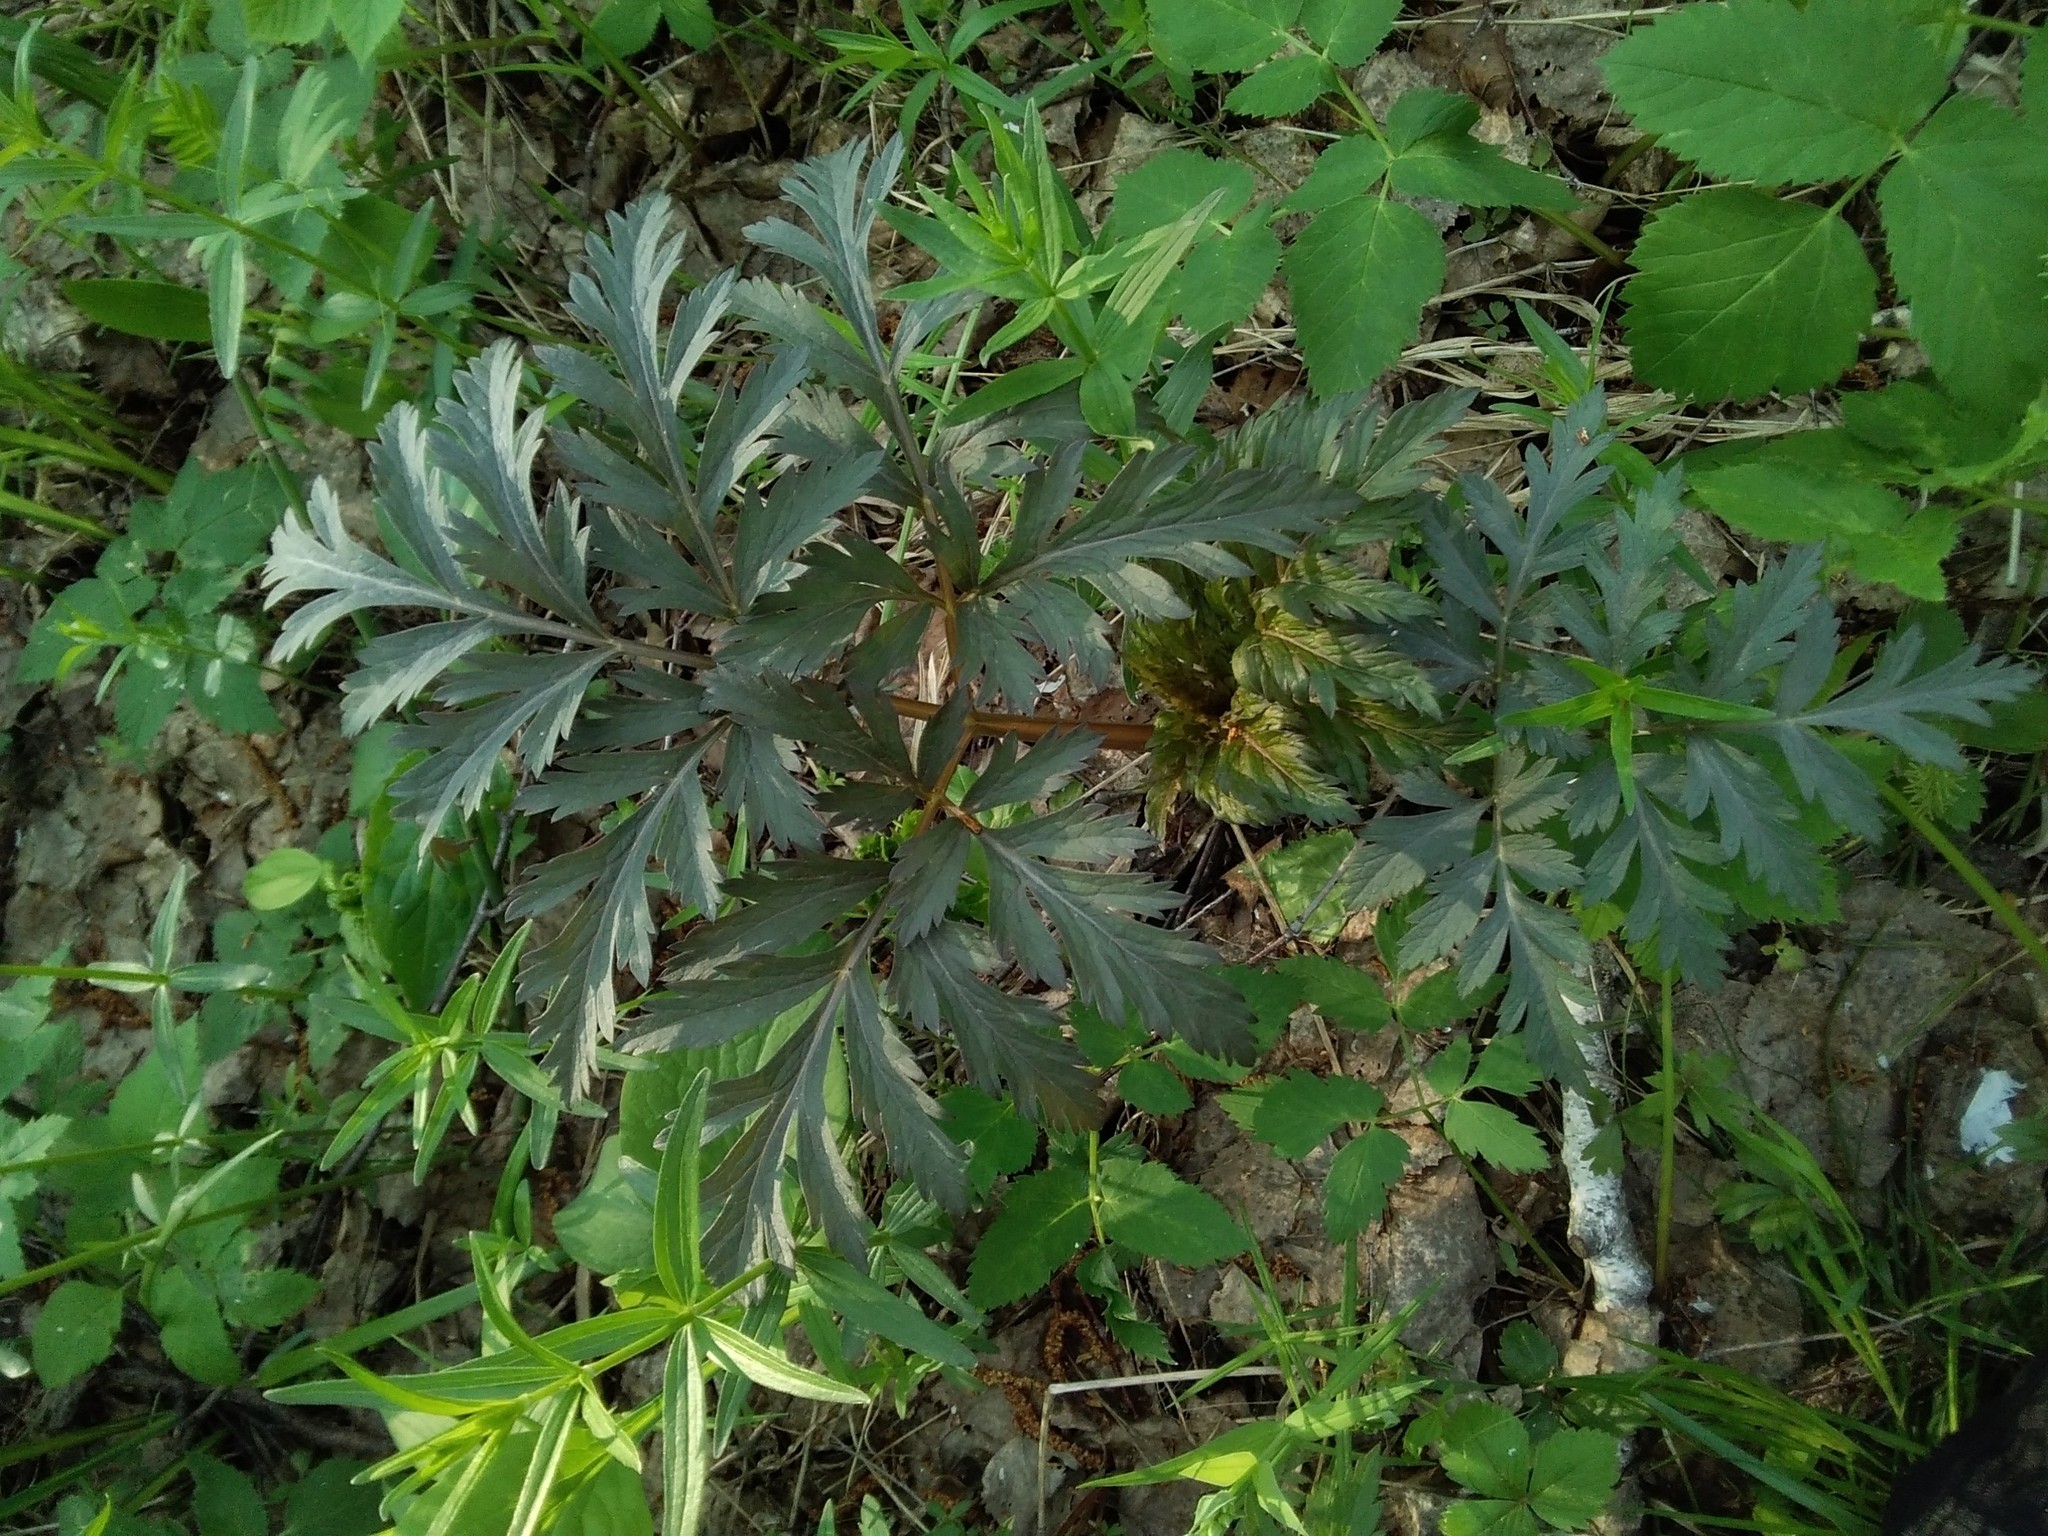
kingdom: Plantae
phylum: Tracheophyta
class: Magnoliopsida
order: Apiales
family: Apiaceae
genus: Pleurospermum
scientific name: Pleurospermum uralense
